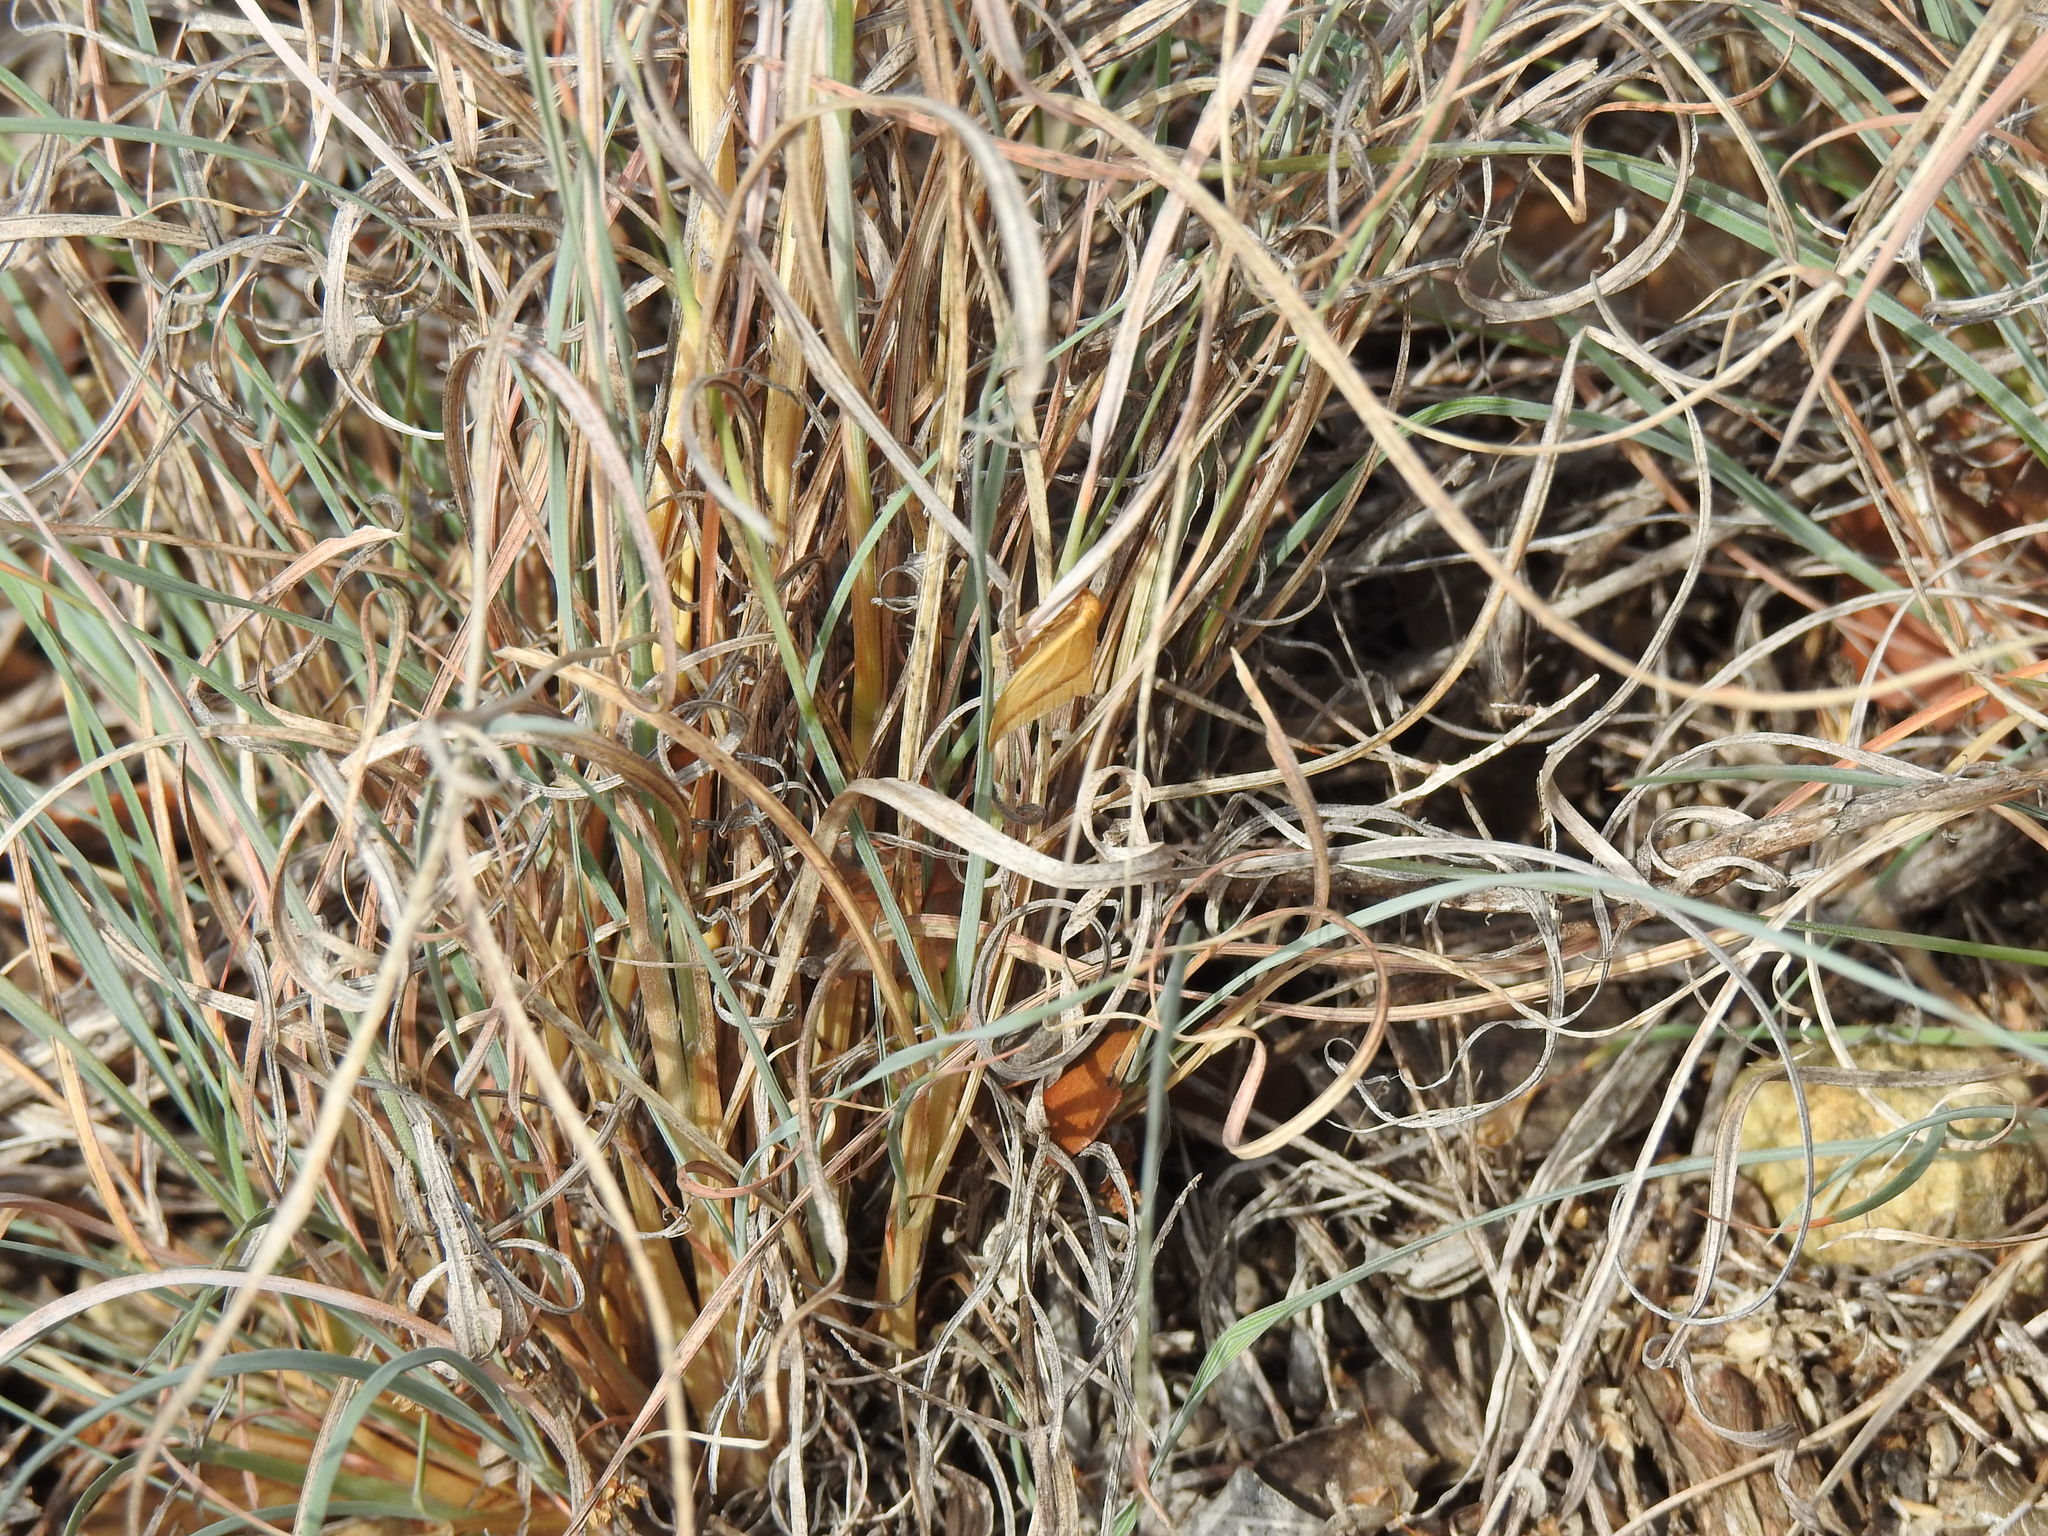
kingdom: Animalia
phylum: Arthropoda
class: Insecta
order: Lepidoptera
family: Geometridae
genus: Rhodometra
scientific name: Rhodometra sacraria
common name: Vestal
